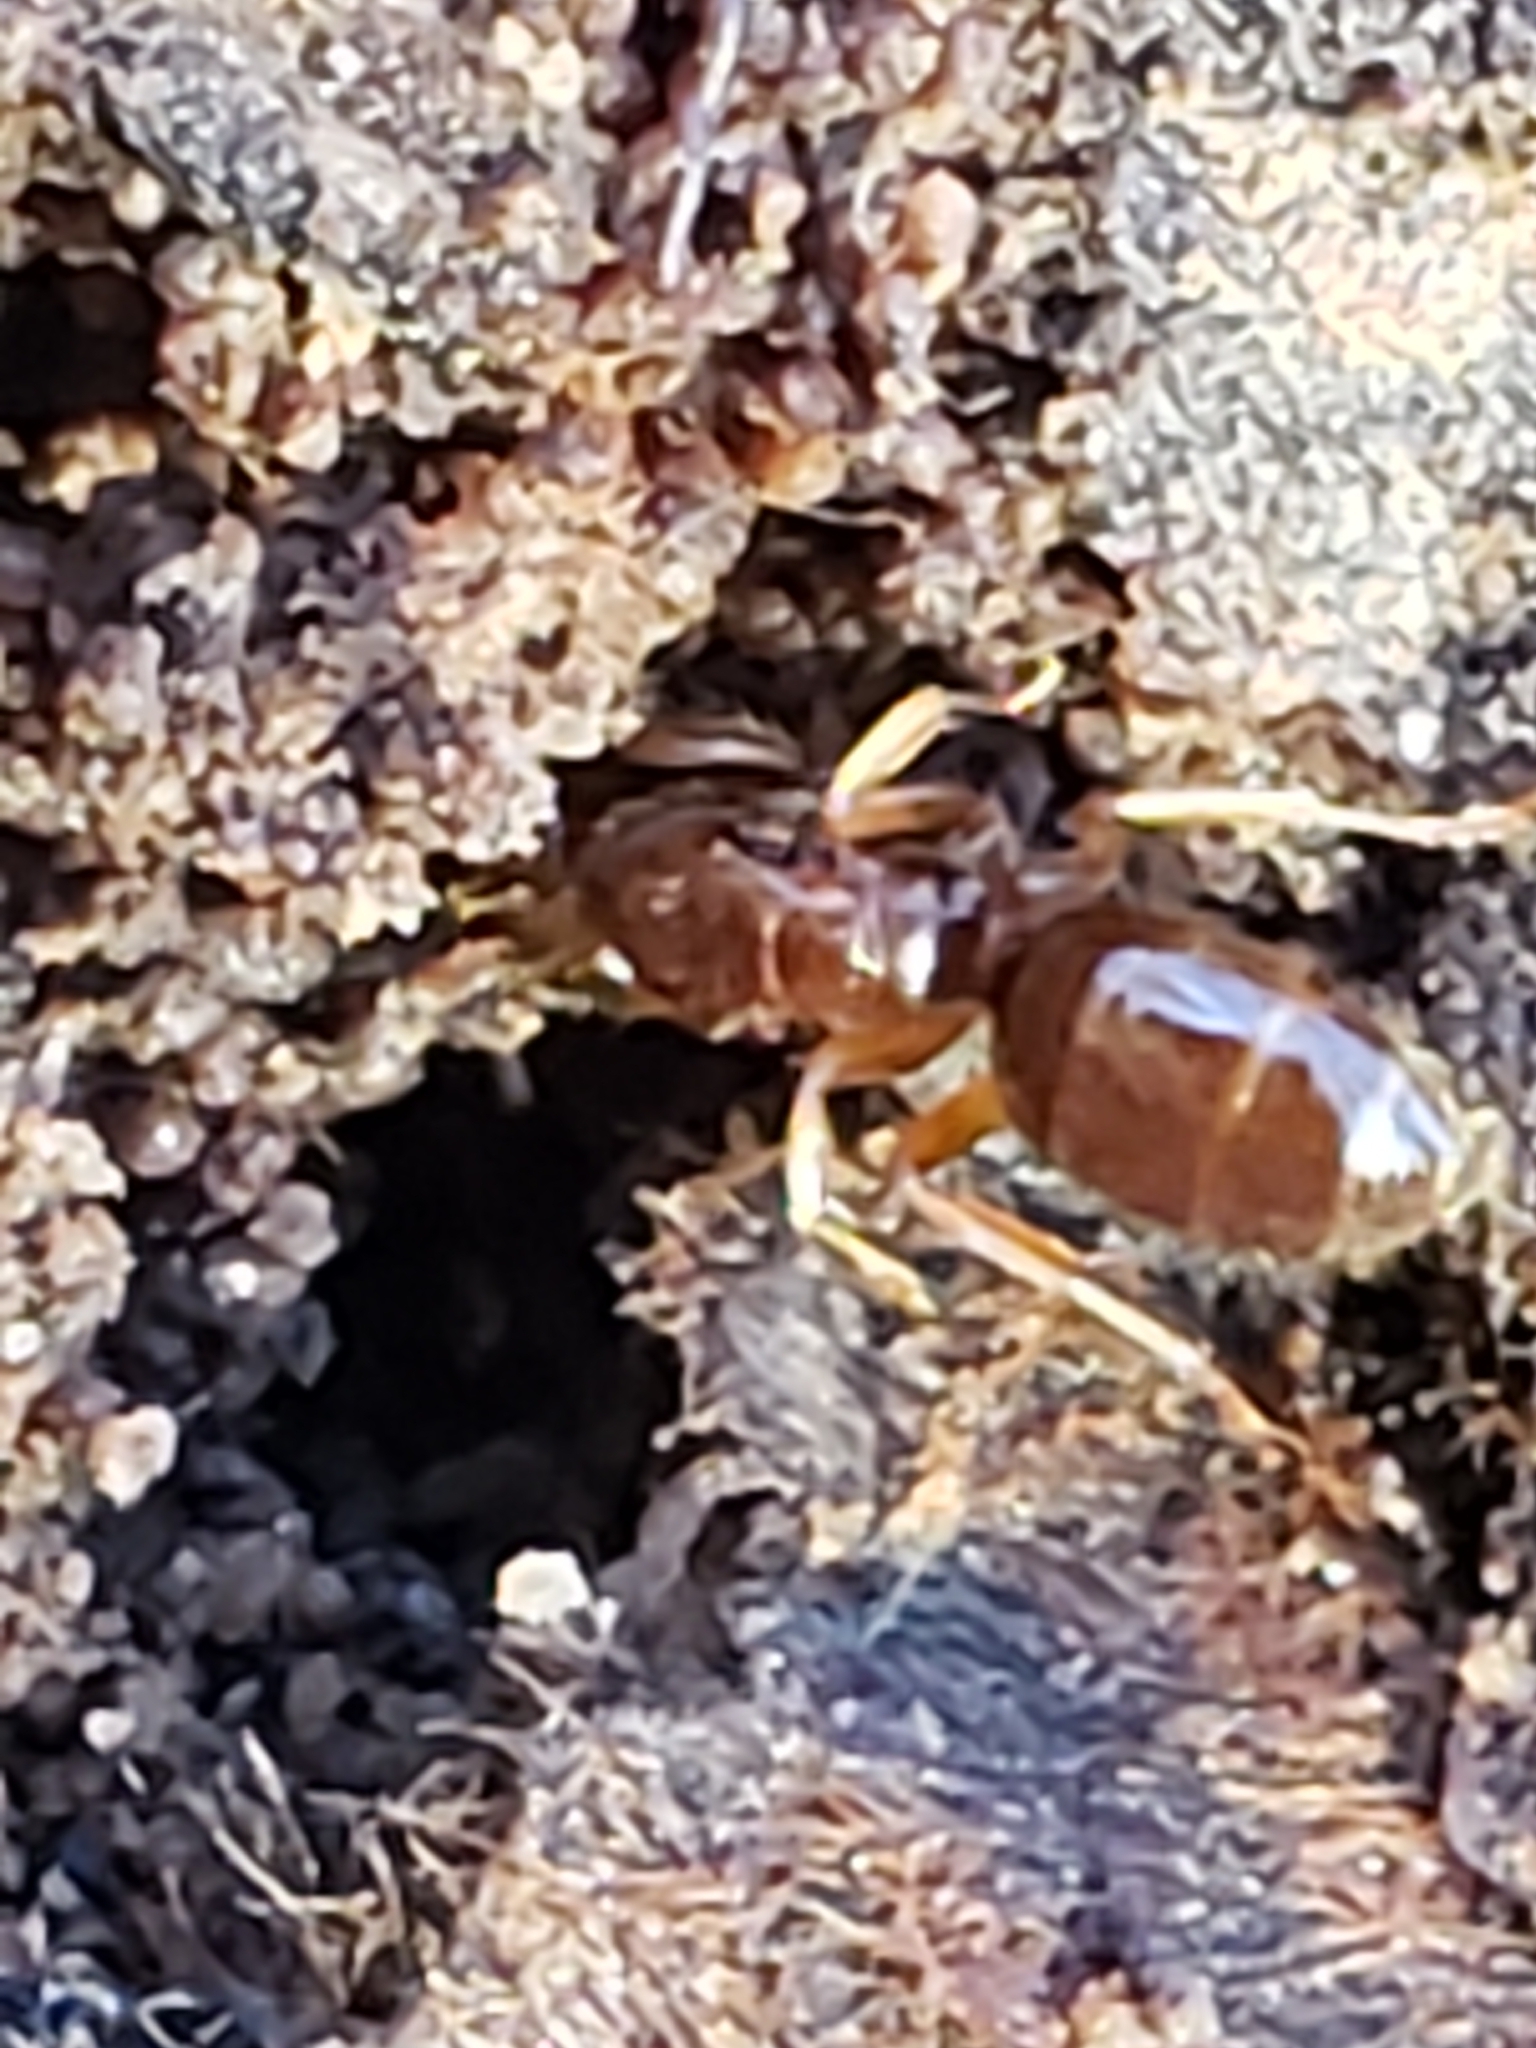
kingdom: Animalia
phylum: Arthropoda
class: Insecta
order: Hymenoptera
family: Formicidae
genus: Lasius
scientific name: Lasius claviger
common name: Common citronella ant
